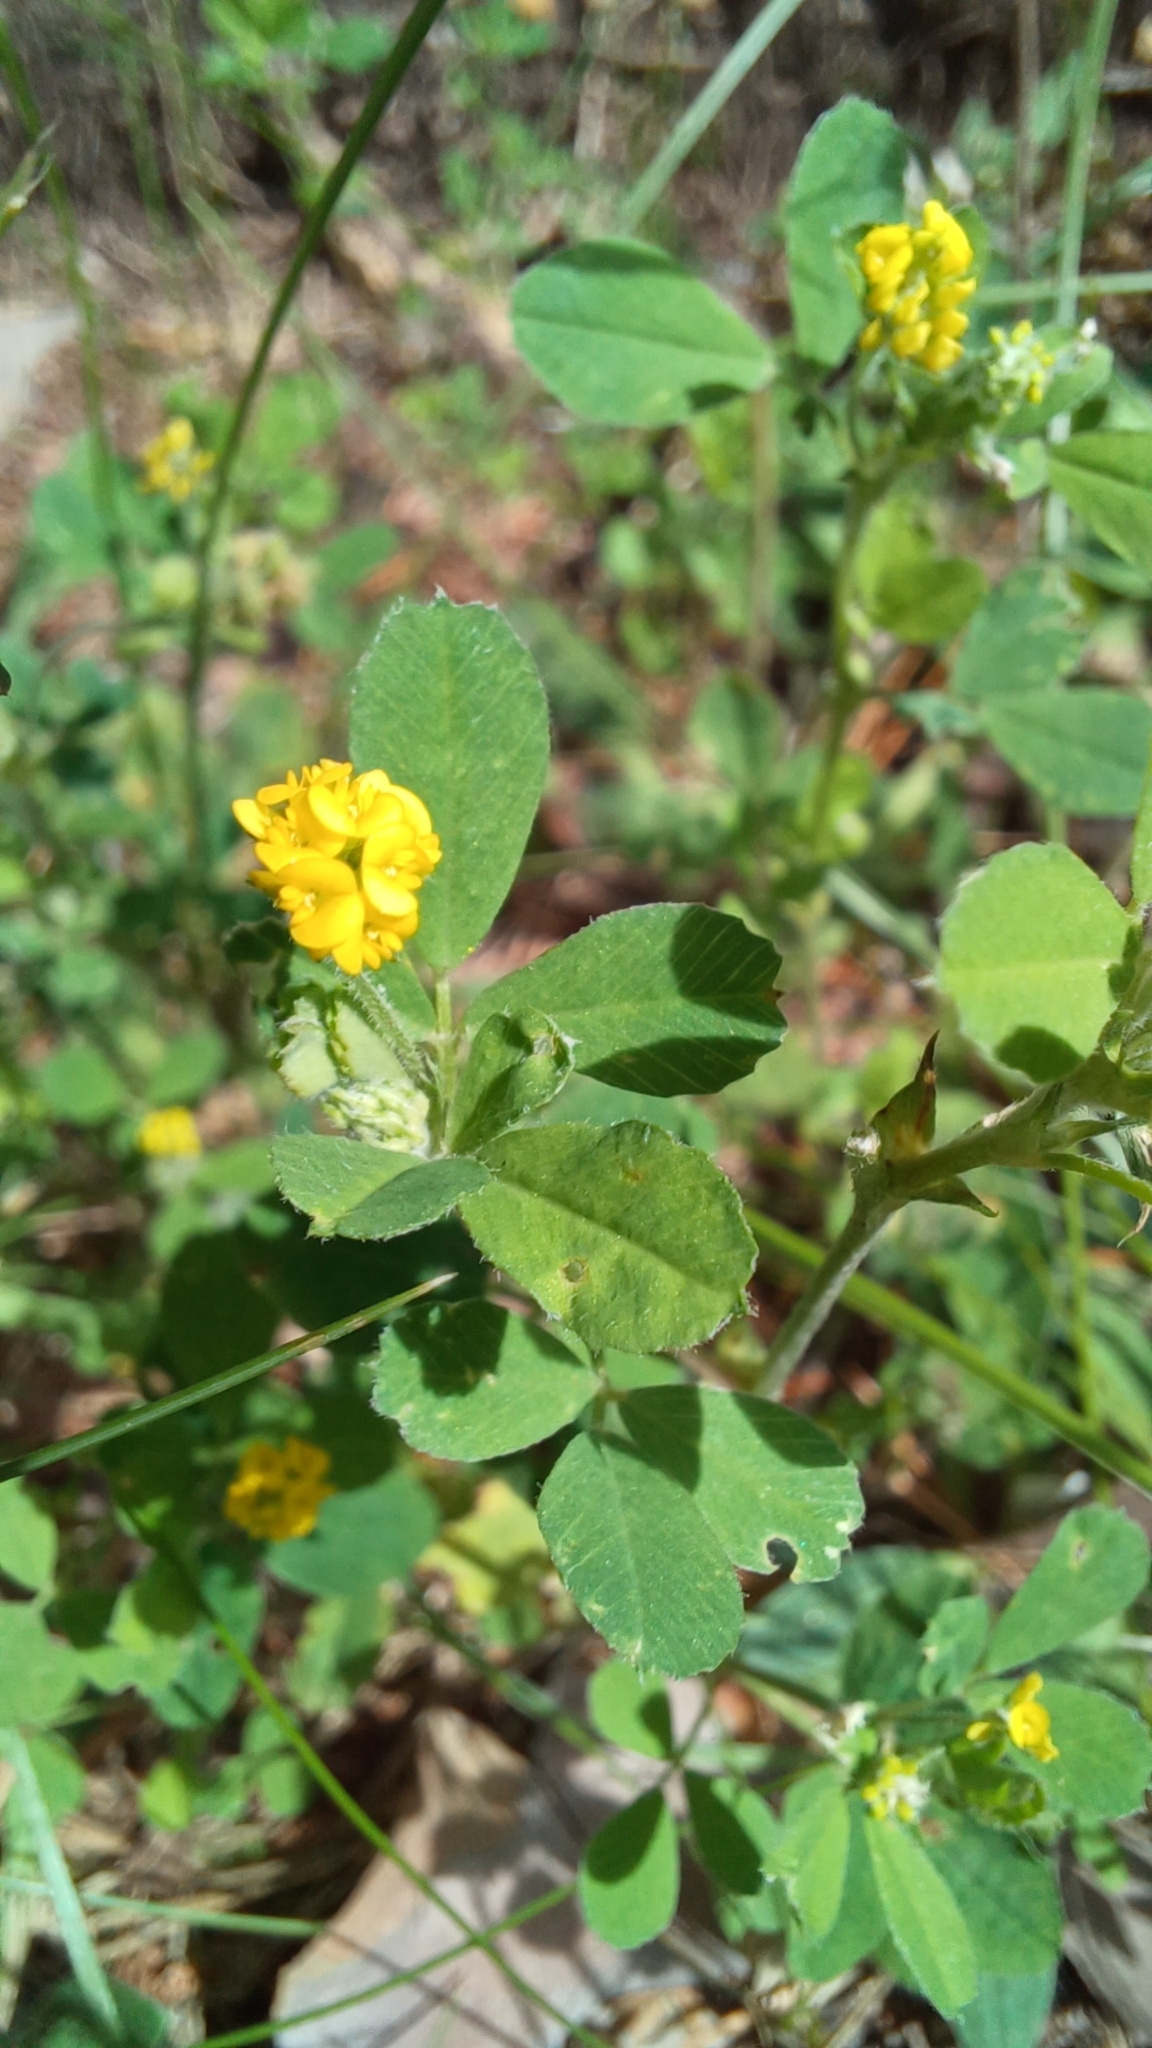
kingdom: Plantae
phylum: Tracheophyta
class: Magnoliopsida
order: Fabales
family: Fabaceae
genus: Medicago
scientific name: Medicago lupulina
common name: Black medick
